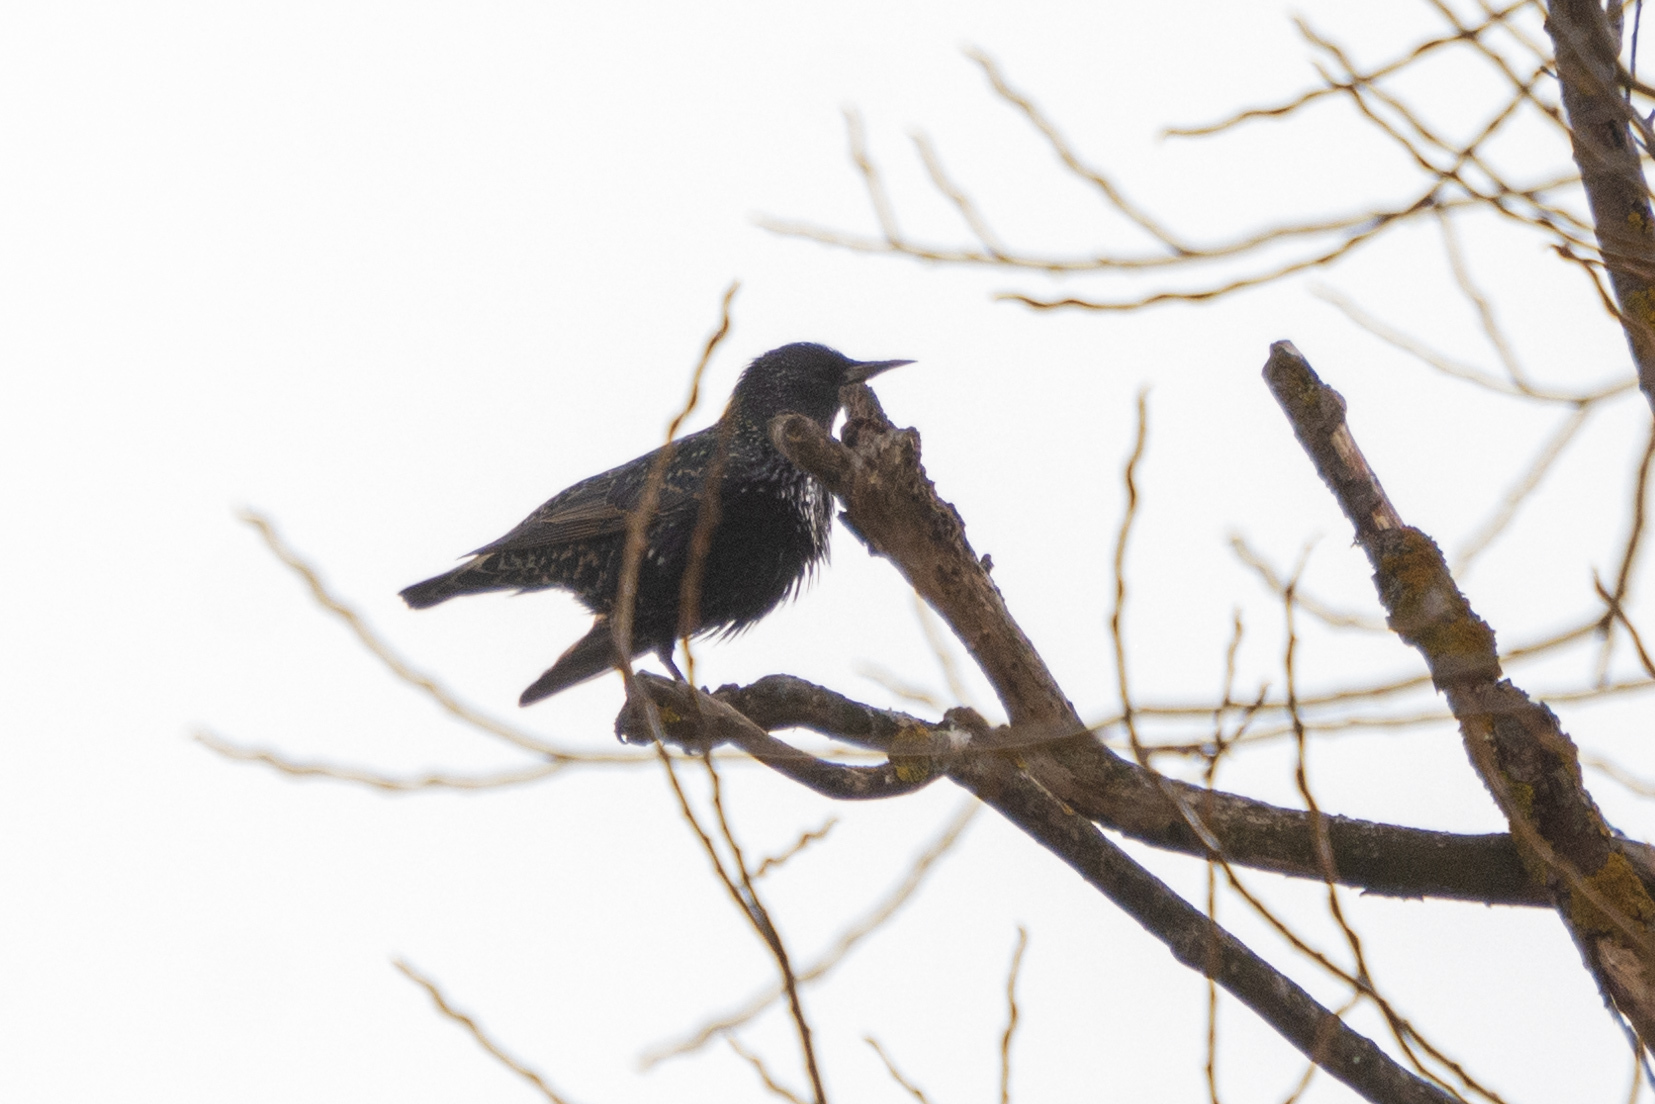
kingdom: Animalia
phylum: Chordata
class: Aves
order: Passeriformes
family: Sturnidae
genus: Sturnus
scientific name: Sturnus vulgaris
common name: Common starling
